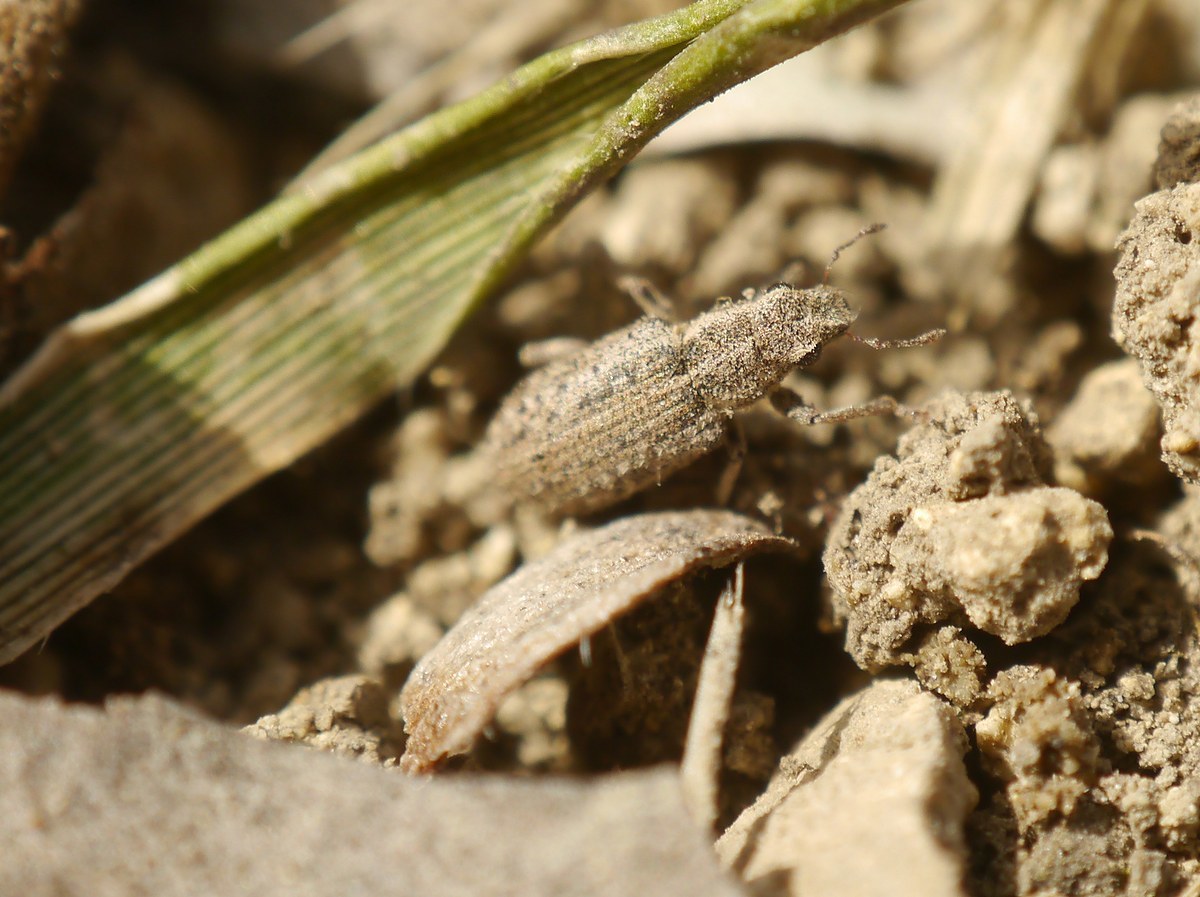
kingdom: Animalia
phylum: Arthropoda
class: Insecta
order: Coleoptera
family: Curculionidae
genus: Sitona
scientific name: Sitona macularius
